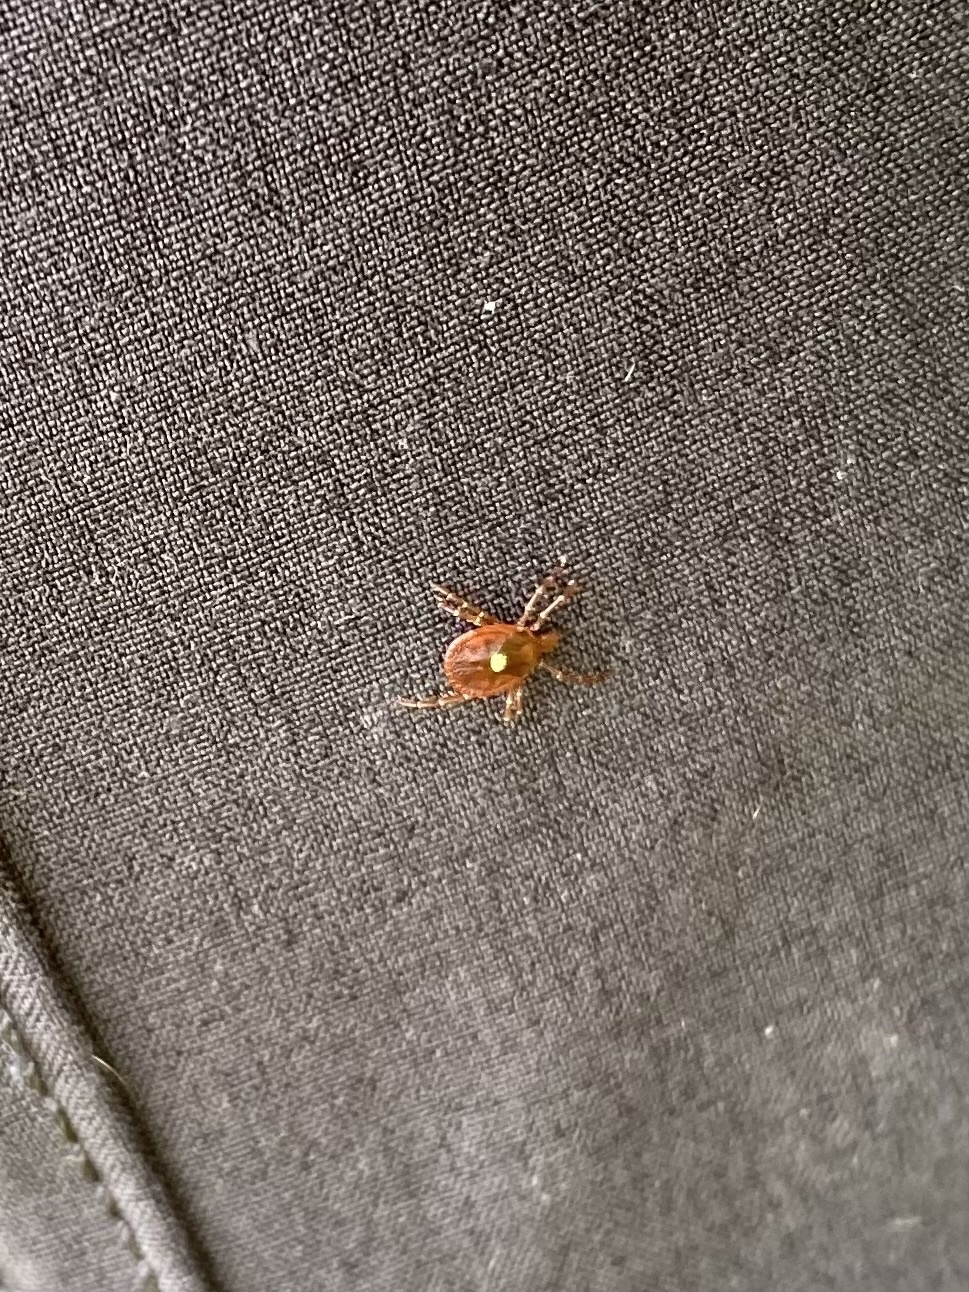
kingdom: Animalia
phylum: Arthropoda
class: Arachnida
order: Ixodida
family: Ixodidae
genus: Amblyomma
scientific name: Amblyomma americanum
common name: Lone star tick
